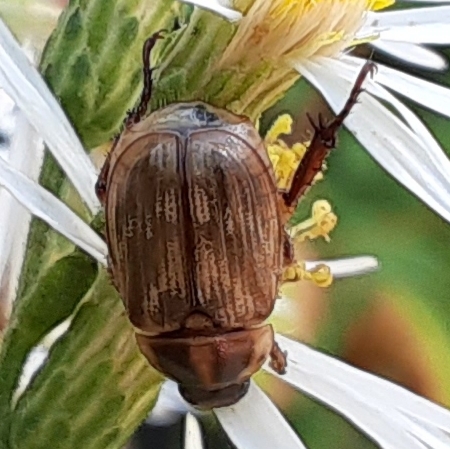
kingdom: Animalia
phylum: Arthropoda
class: Insecta
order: Coleoptera
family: Scarabaeidae
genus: Exomala
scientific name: Exomala orientalis
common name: Oriental beetle
